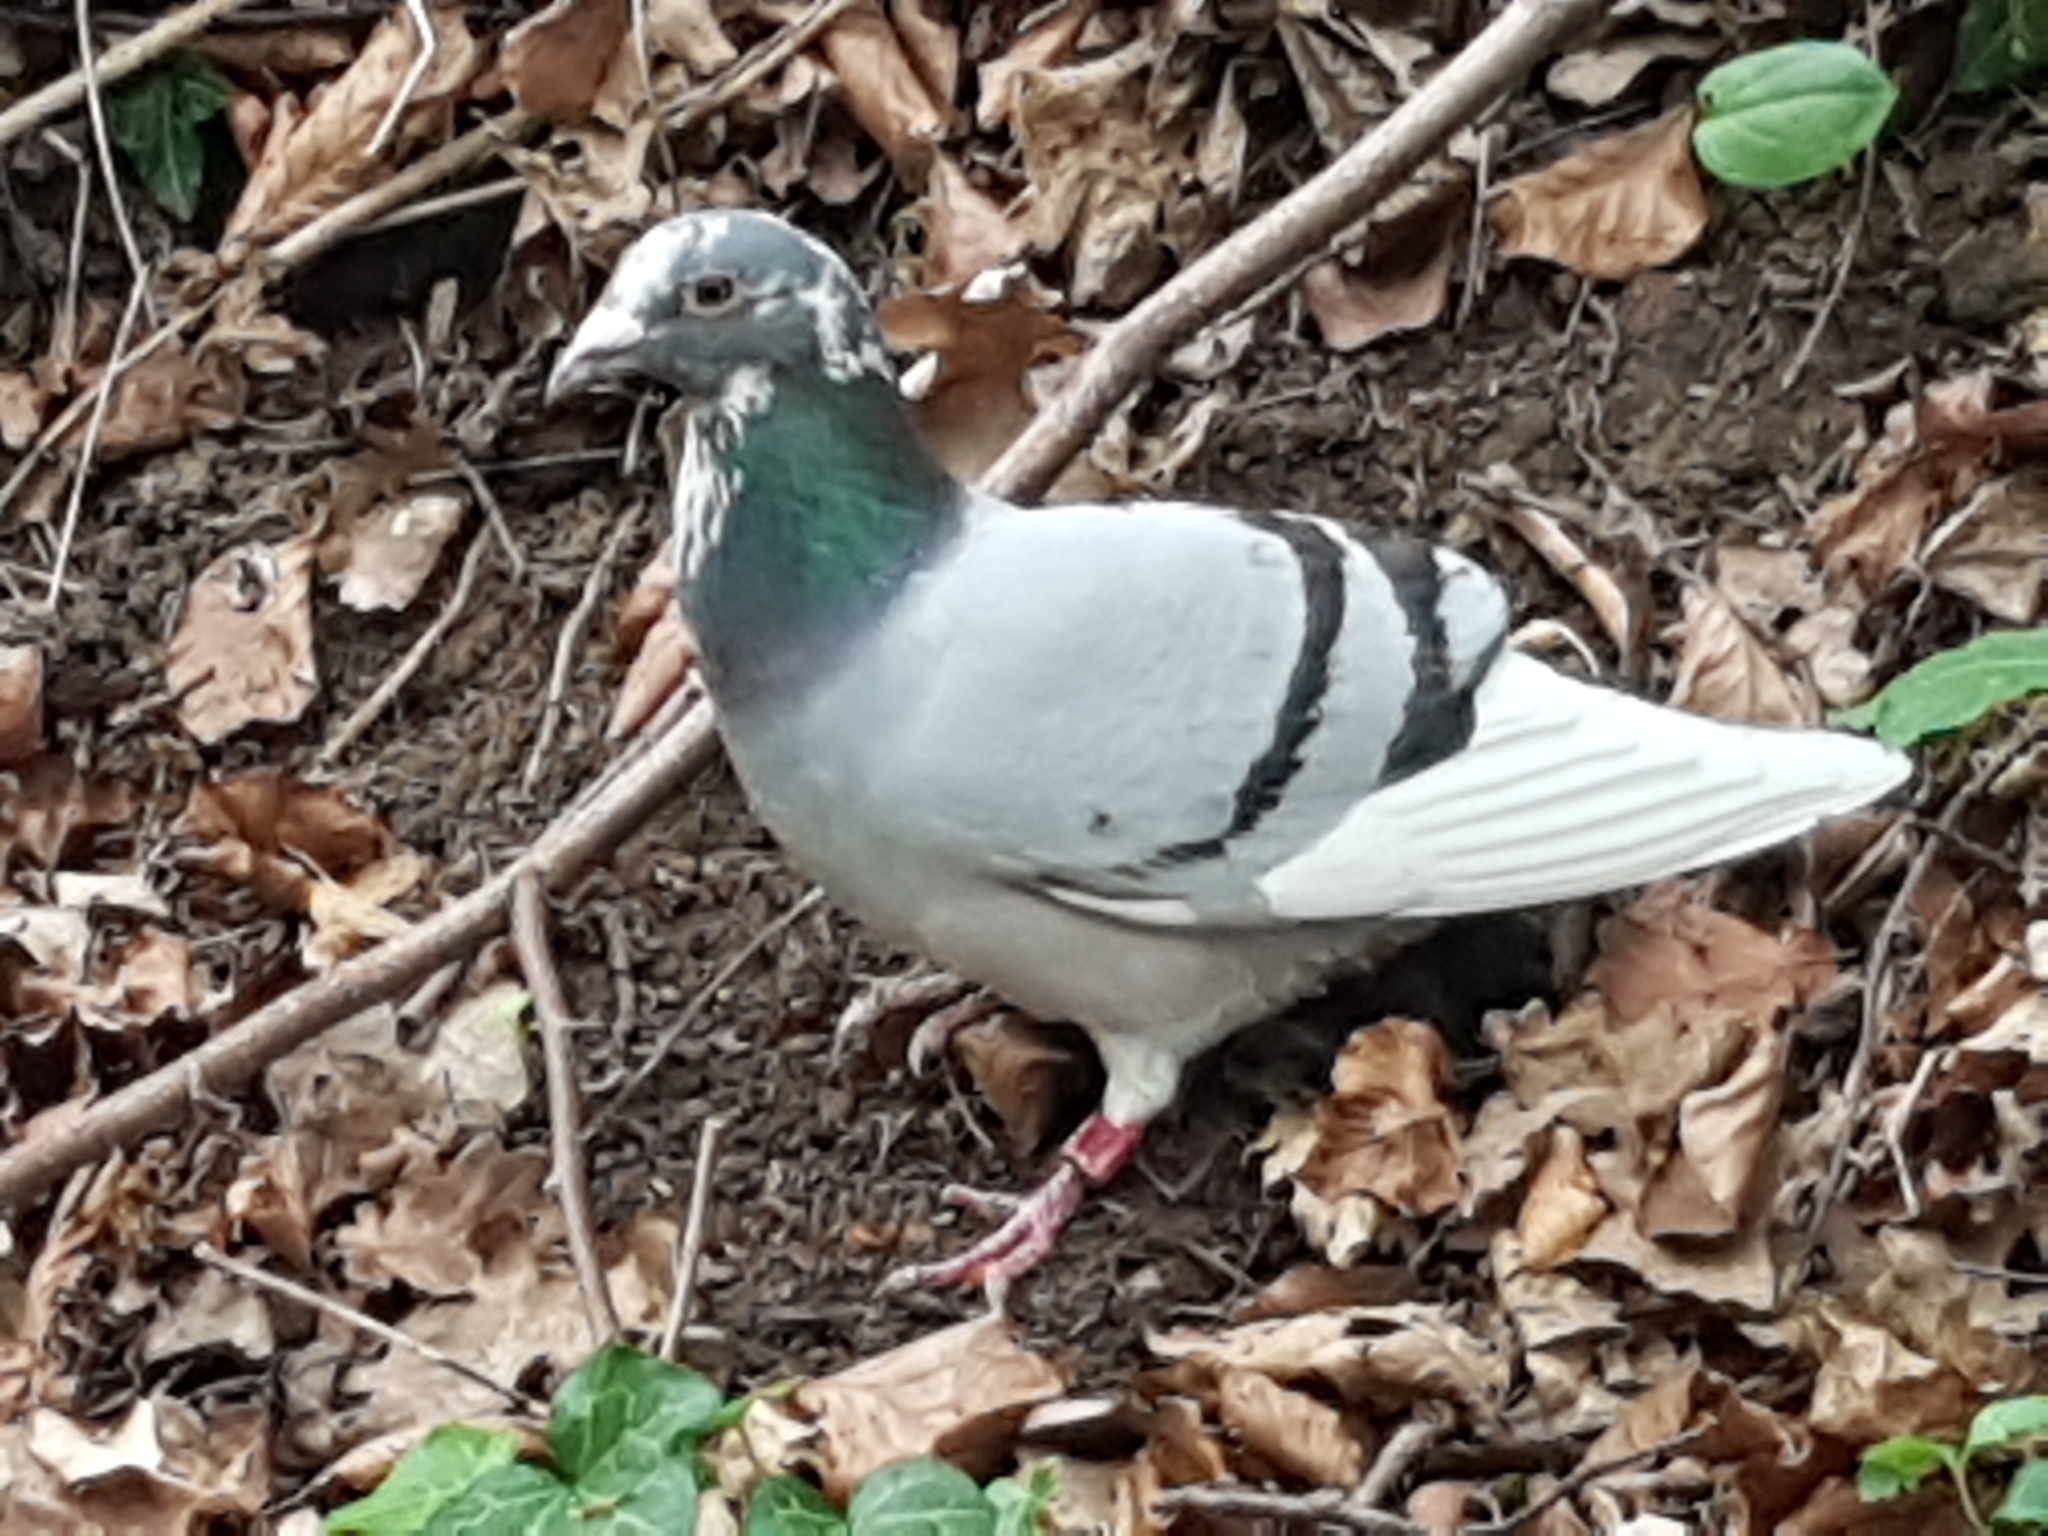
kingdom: Animalia
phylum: Chordata
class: Aves
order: Columbiformes
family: Columbidae
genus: Columba
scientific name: Columba livia
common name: Rock pigeon
